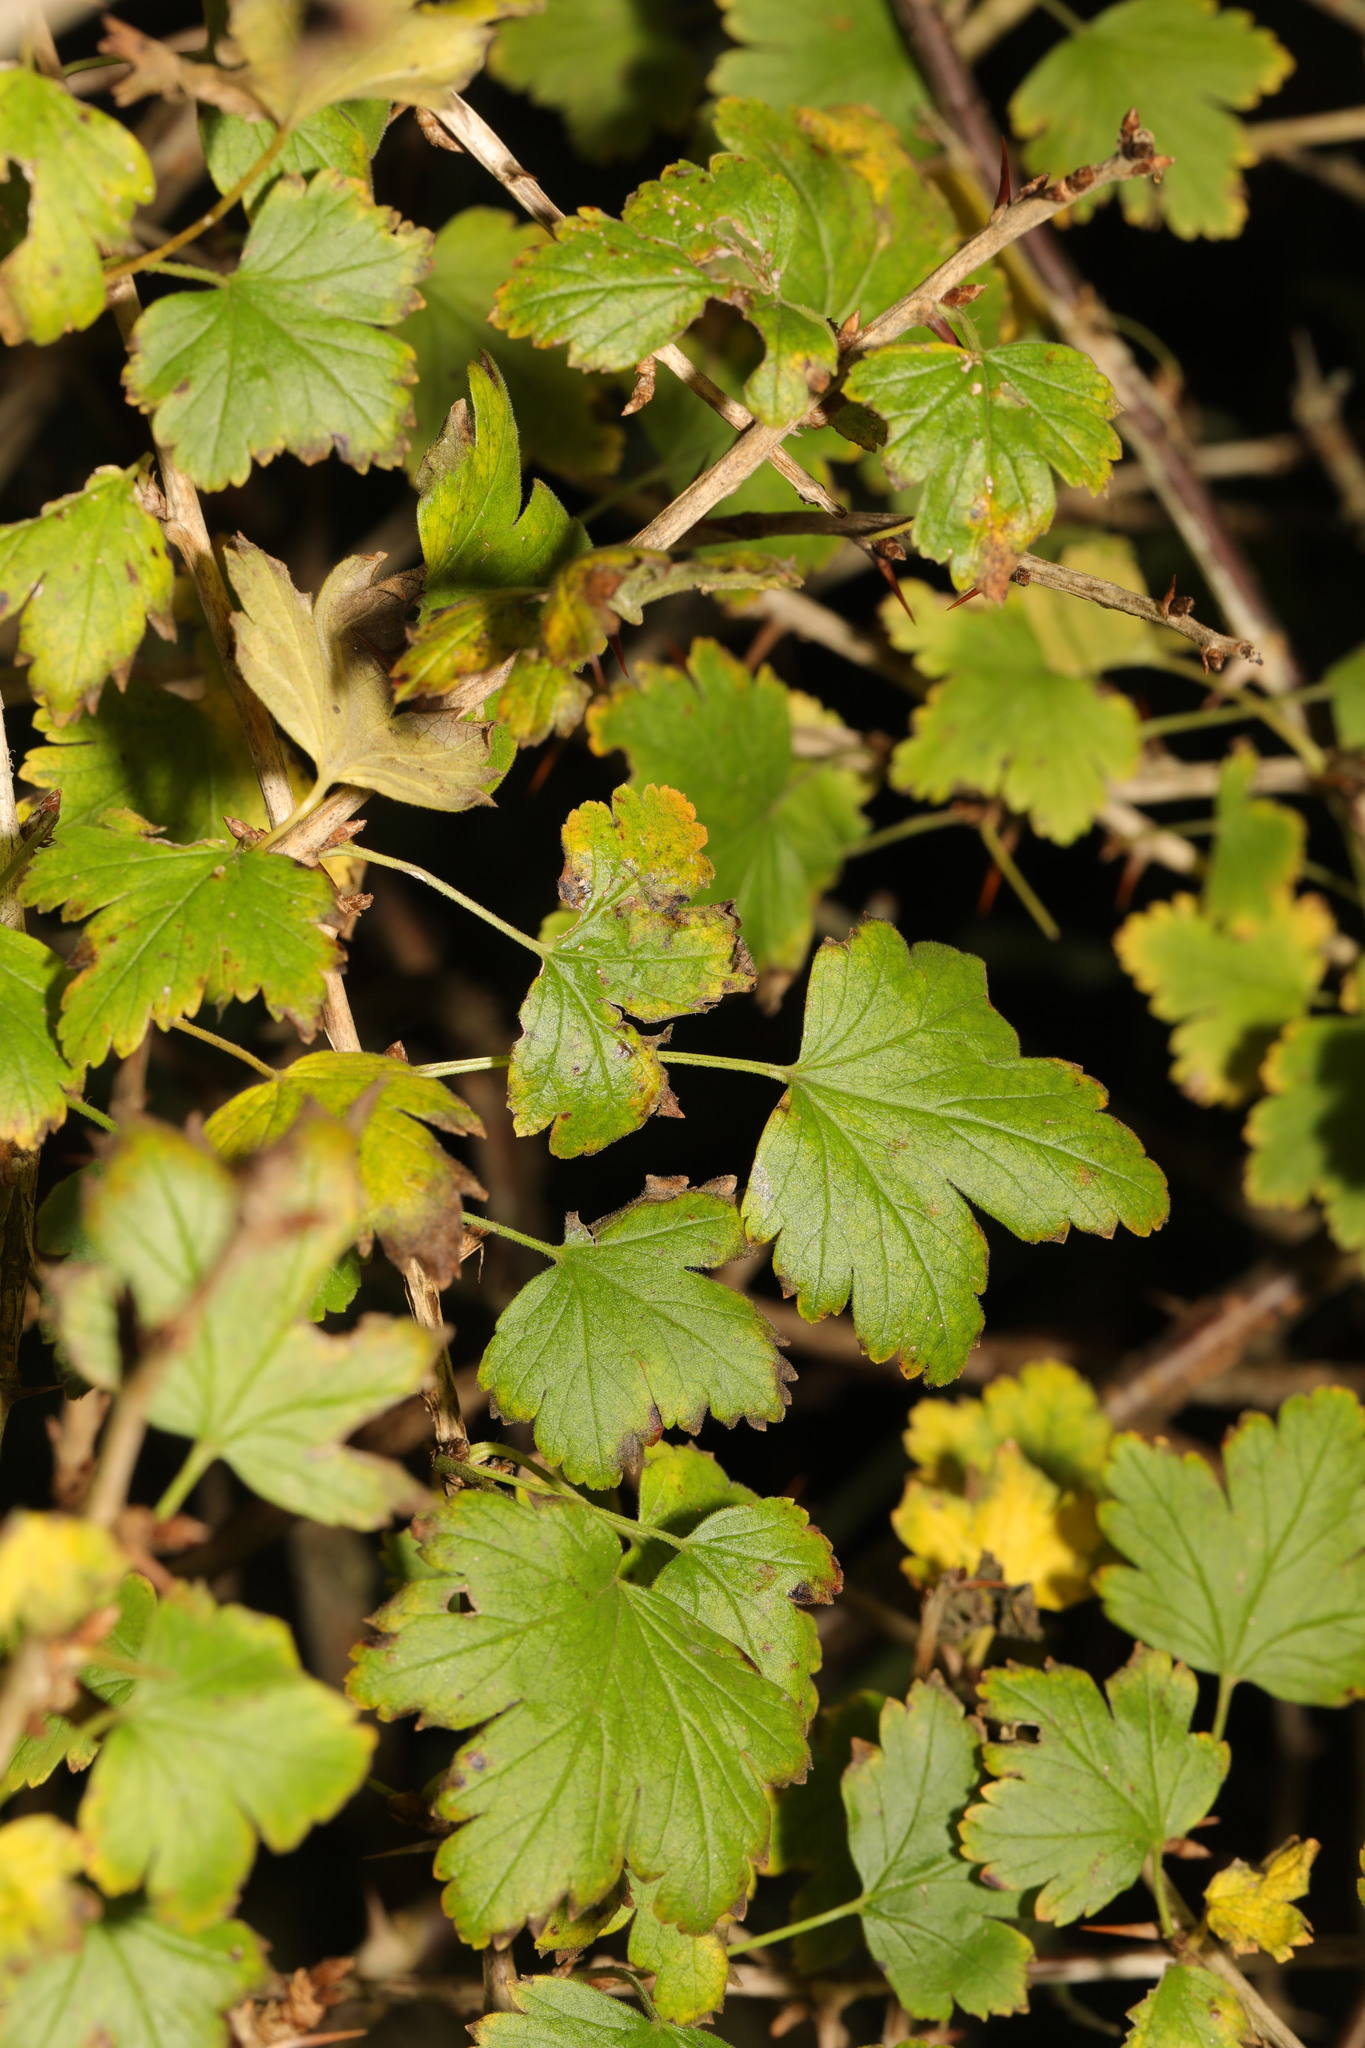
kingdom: Plantae
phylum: Tracheophyta
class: Magnoliopsida
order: Saxifragales
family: Grossulariaceae
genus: Ribes
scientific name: Ribes uva-crispa
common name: Gooseberry
